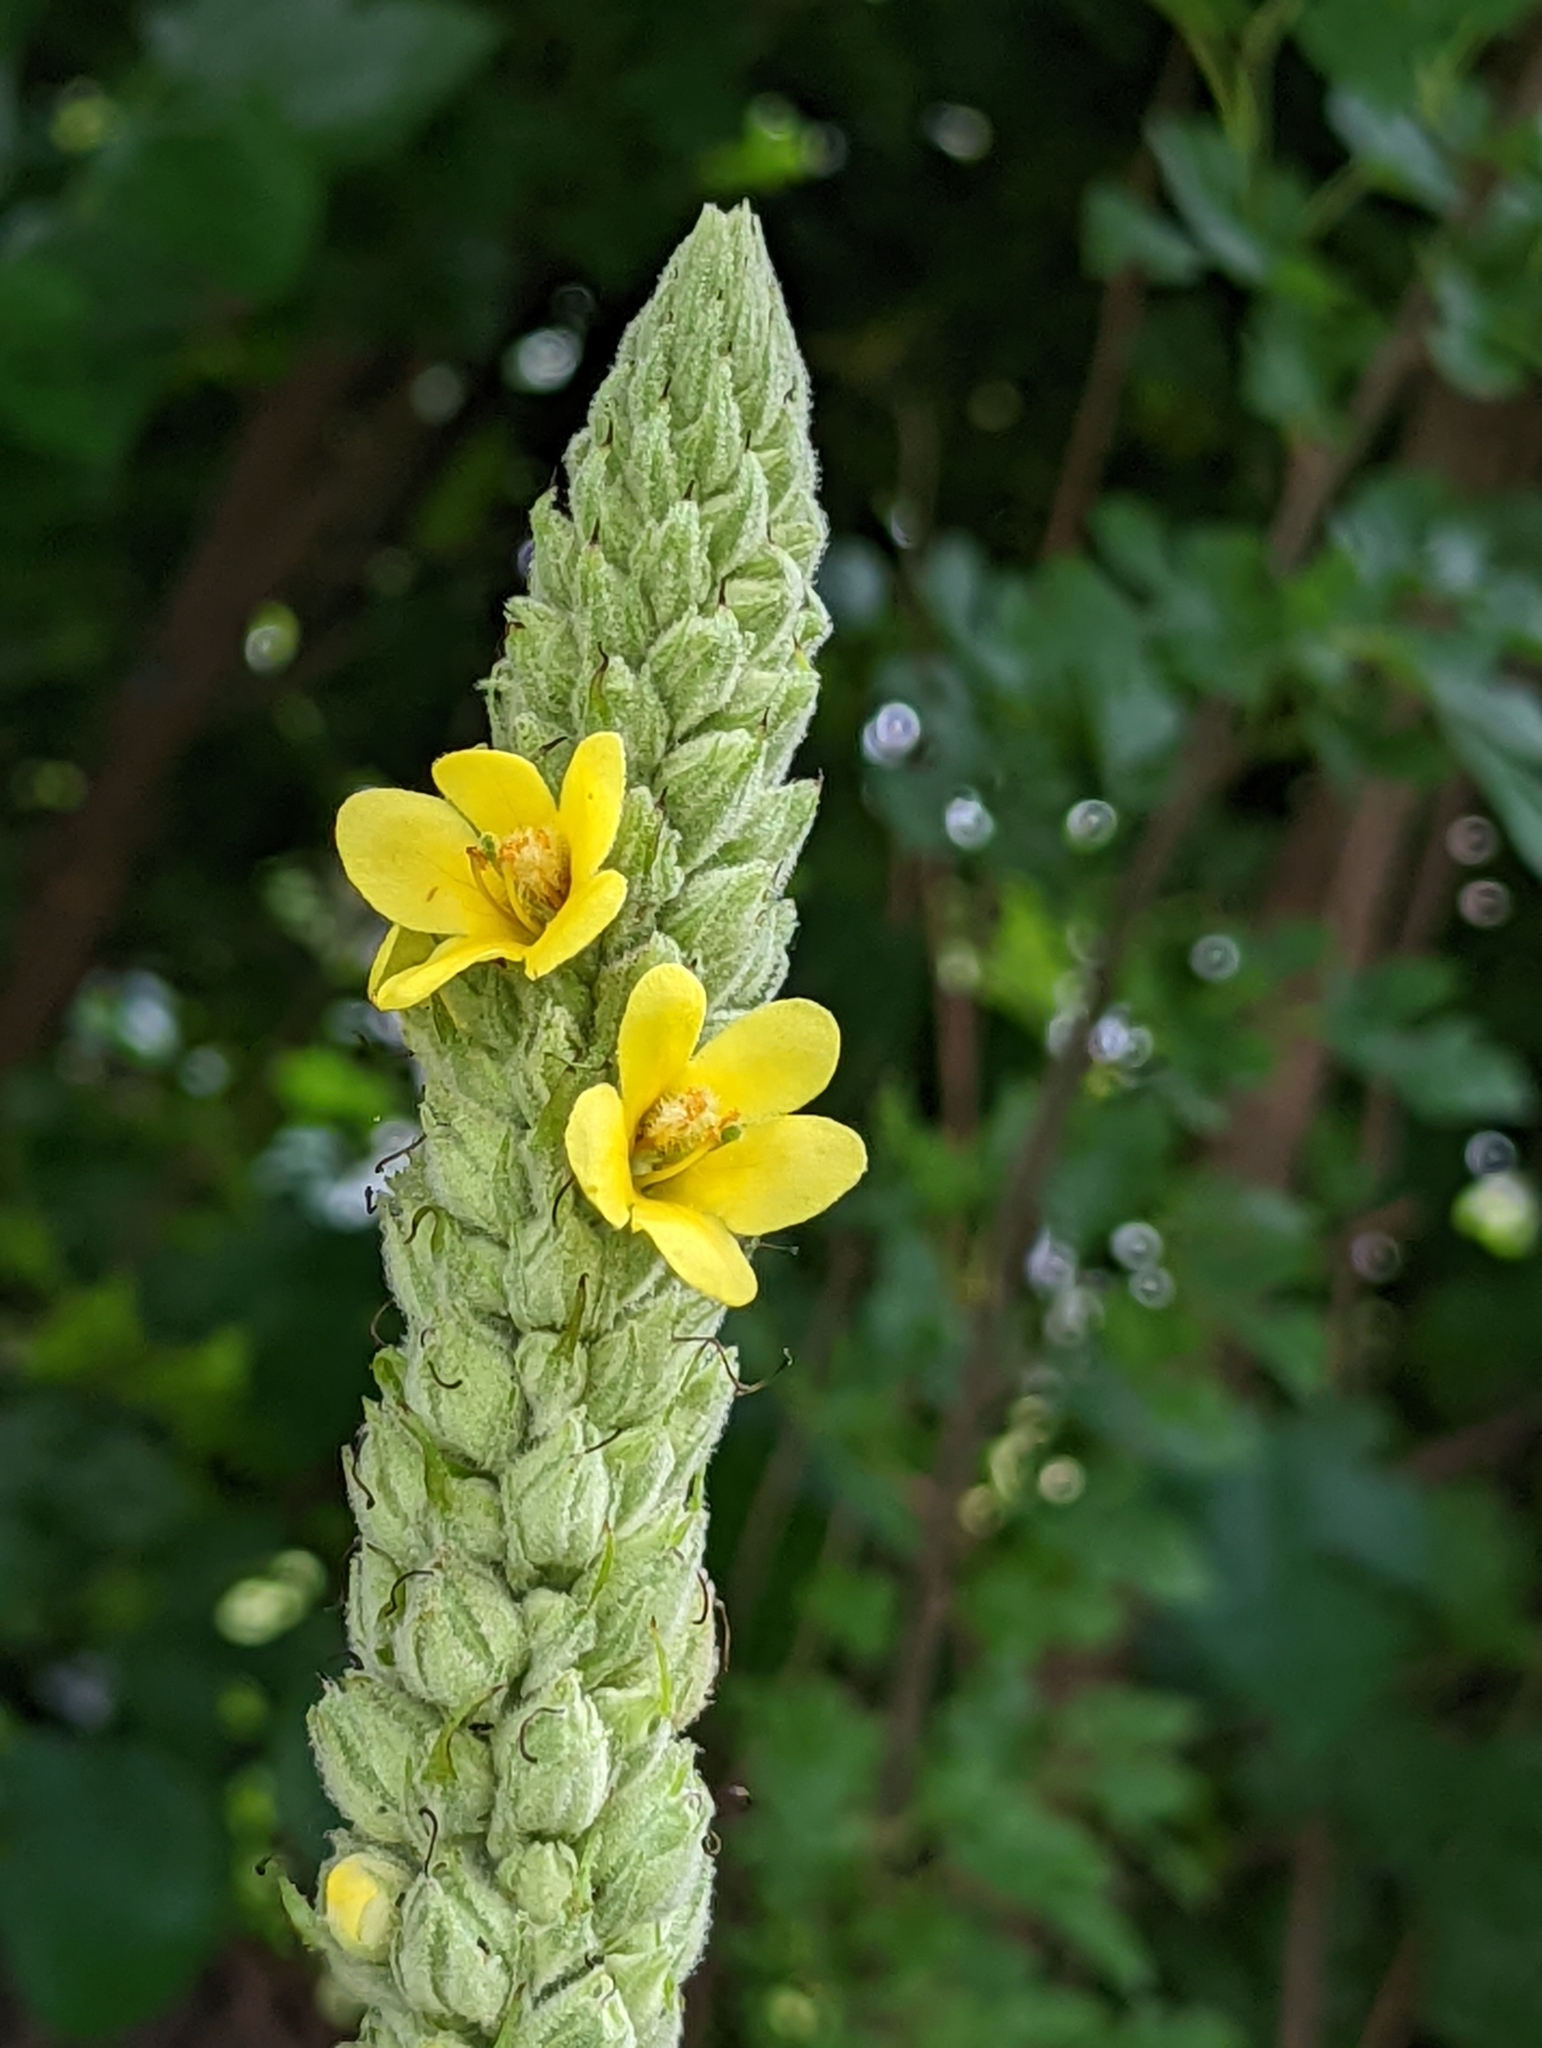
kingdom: Plantae
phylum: Tracheophyta
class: Magnoliopsida
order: Lamiales
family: Scrophulariaceae
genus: Verbascum
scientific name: Verbascum thapsus
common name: Common mullein
